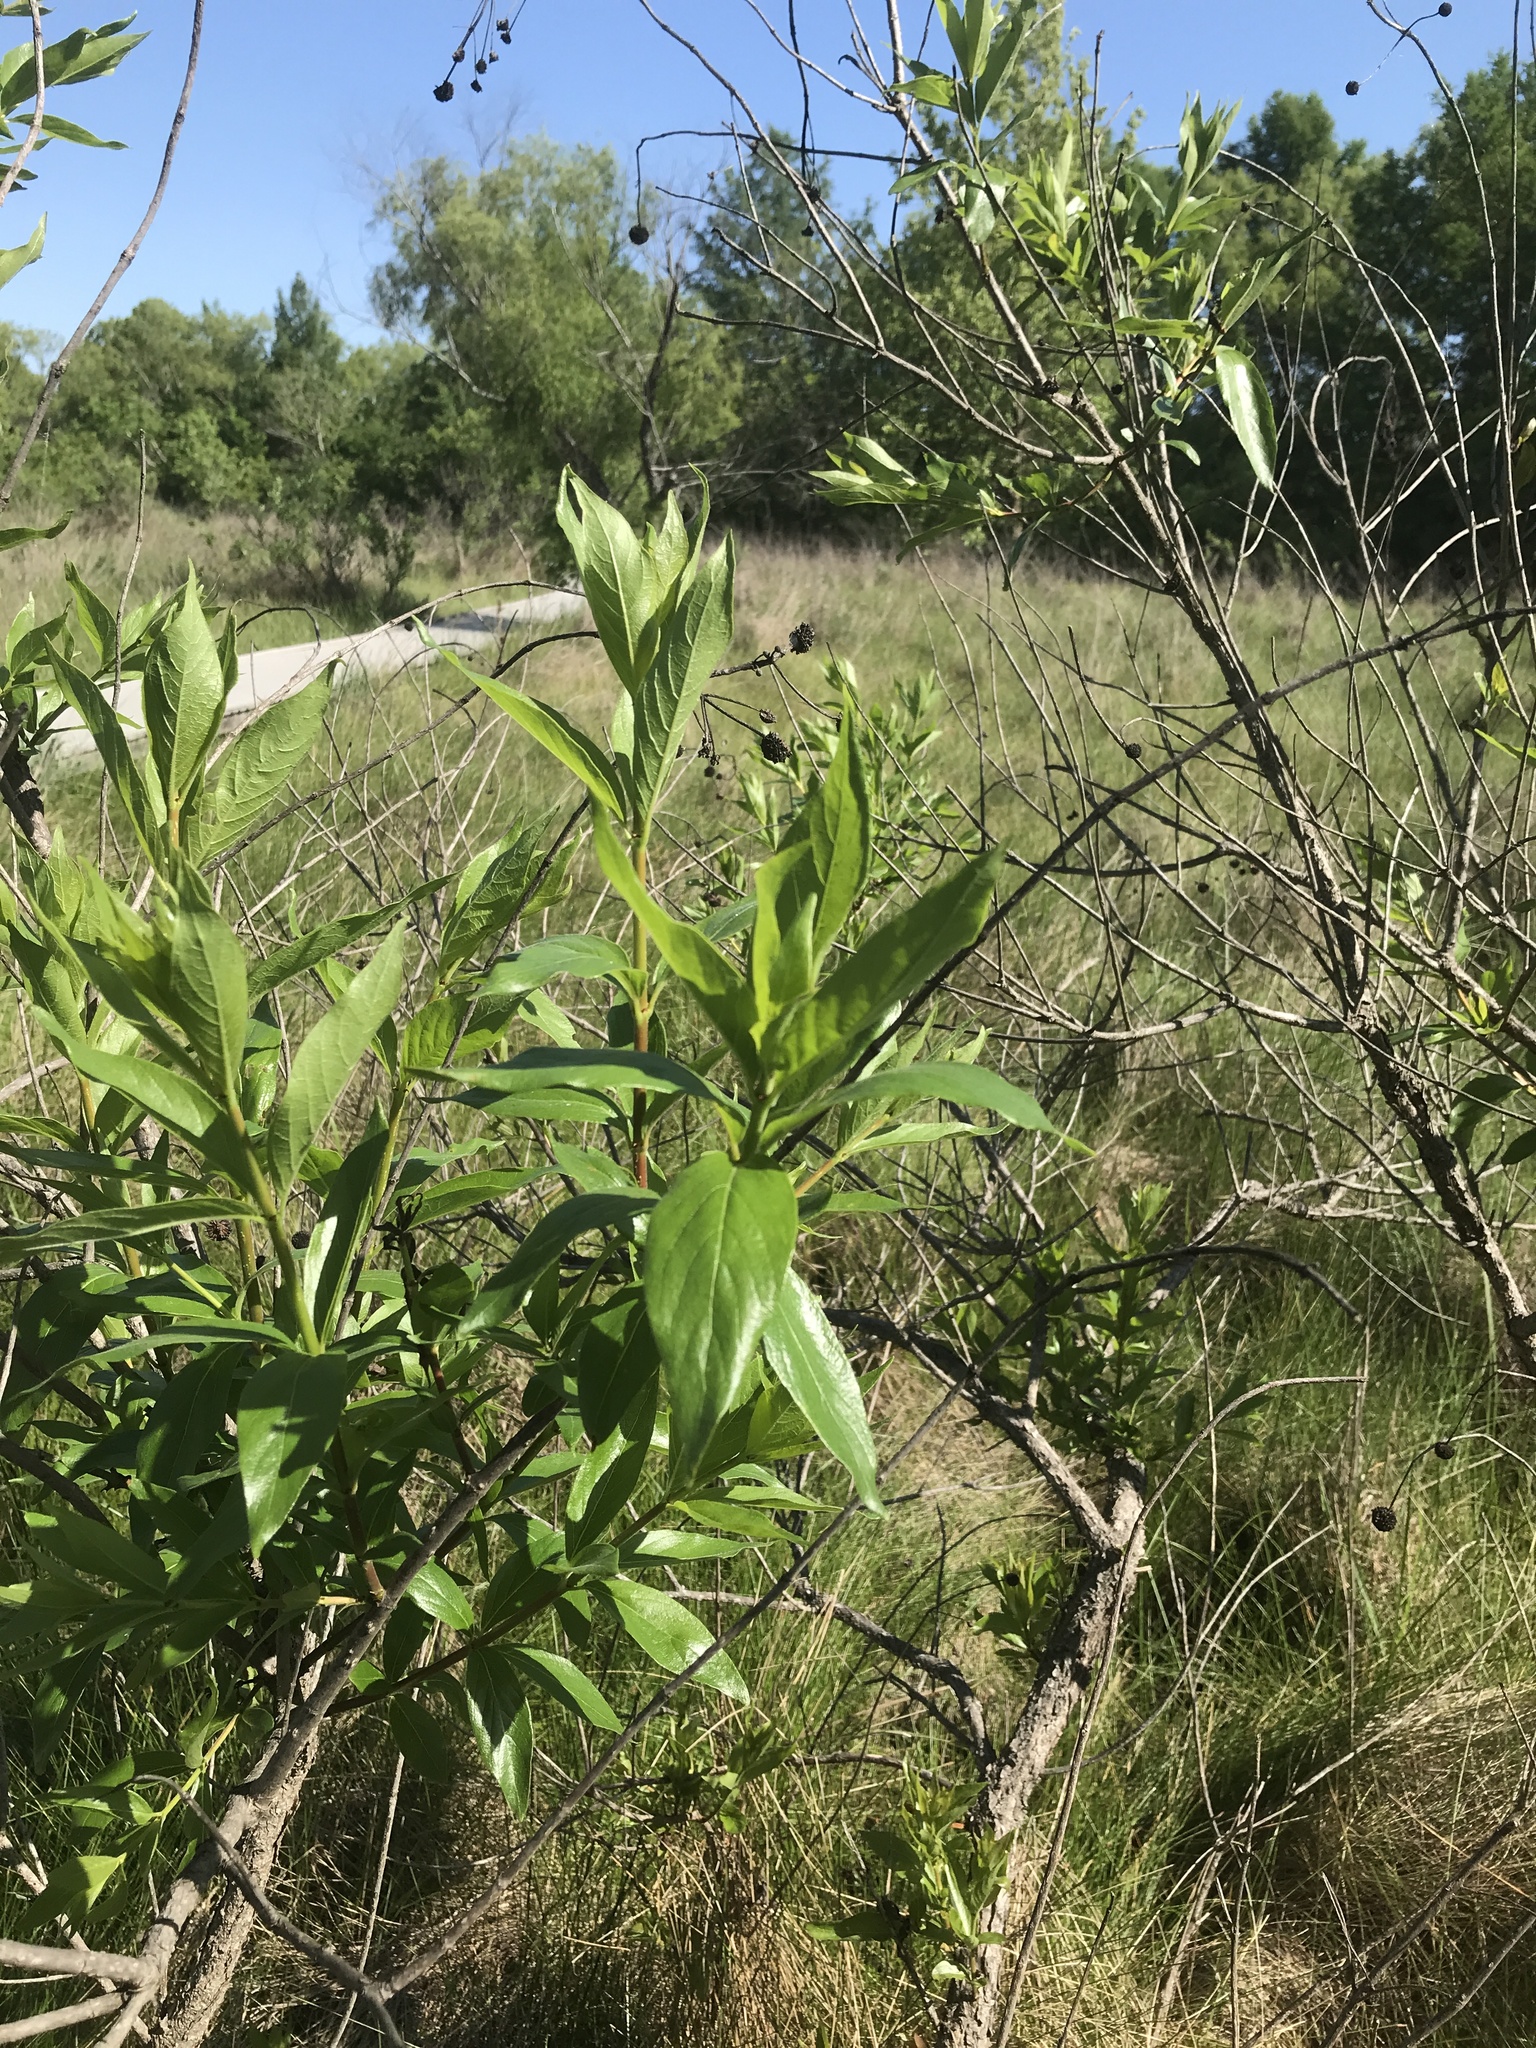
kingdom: Plantae
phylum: Tracheophyta
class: Magnoliopsida
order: Gentianales
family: Rubiaceae
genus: Cephalanthus
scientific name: Cephalanthus occidentalis
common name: Button-willow
